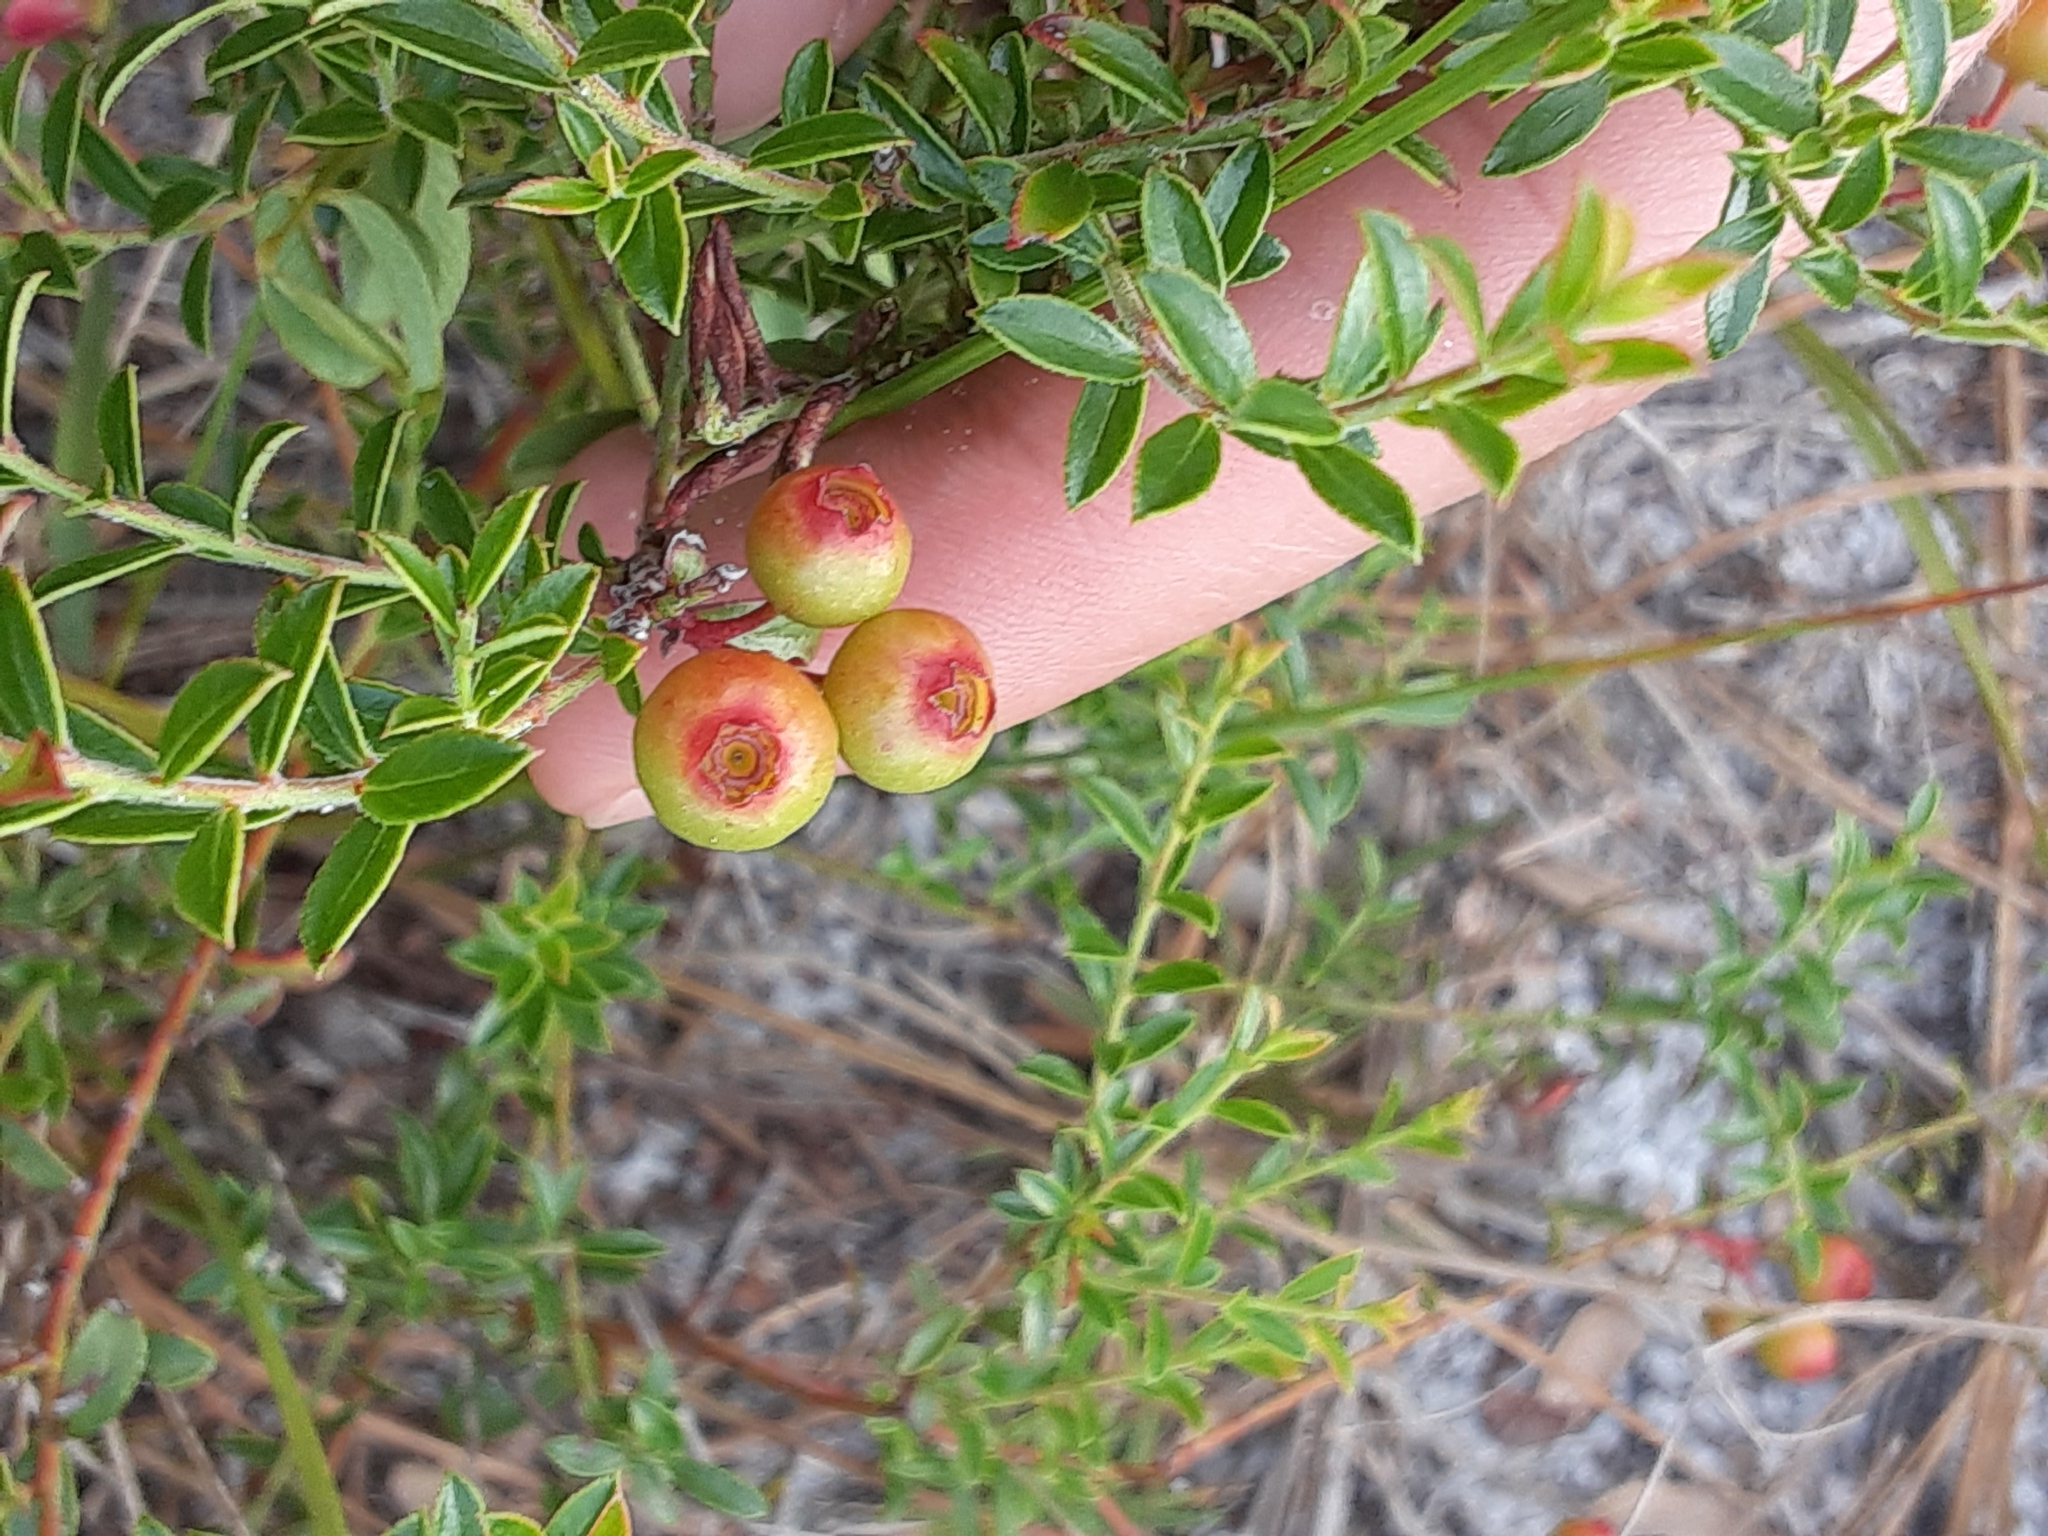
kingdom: Plantae
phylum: Tracheophyta
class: Magnoliopsida
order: Ericales
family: Ericaceae
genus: Vaccinium
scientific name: Vaccinium myrsinites
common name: Evergreen blueberry
